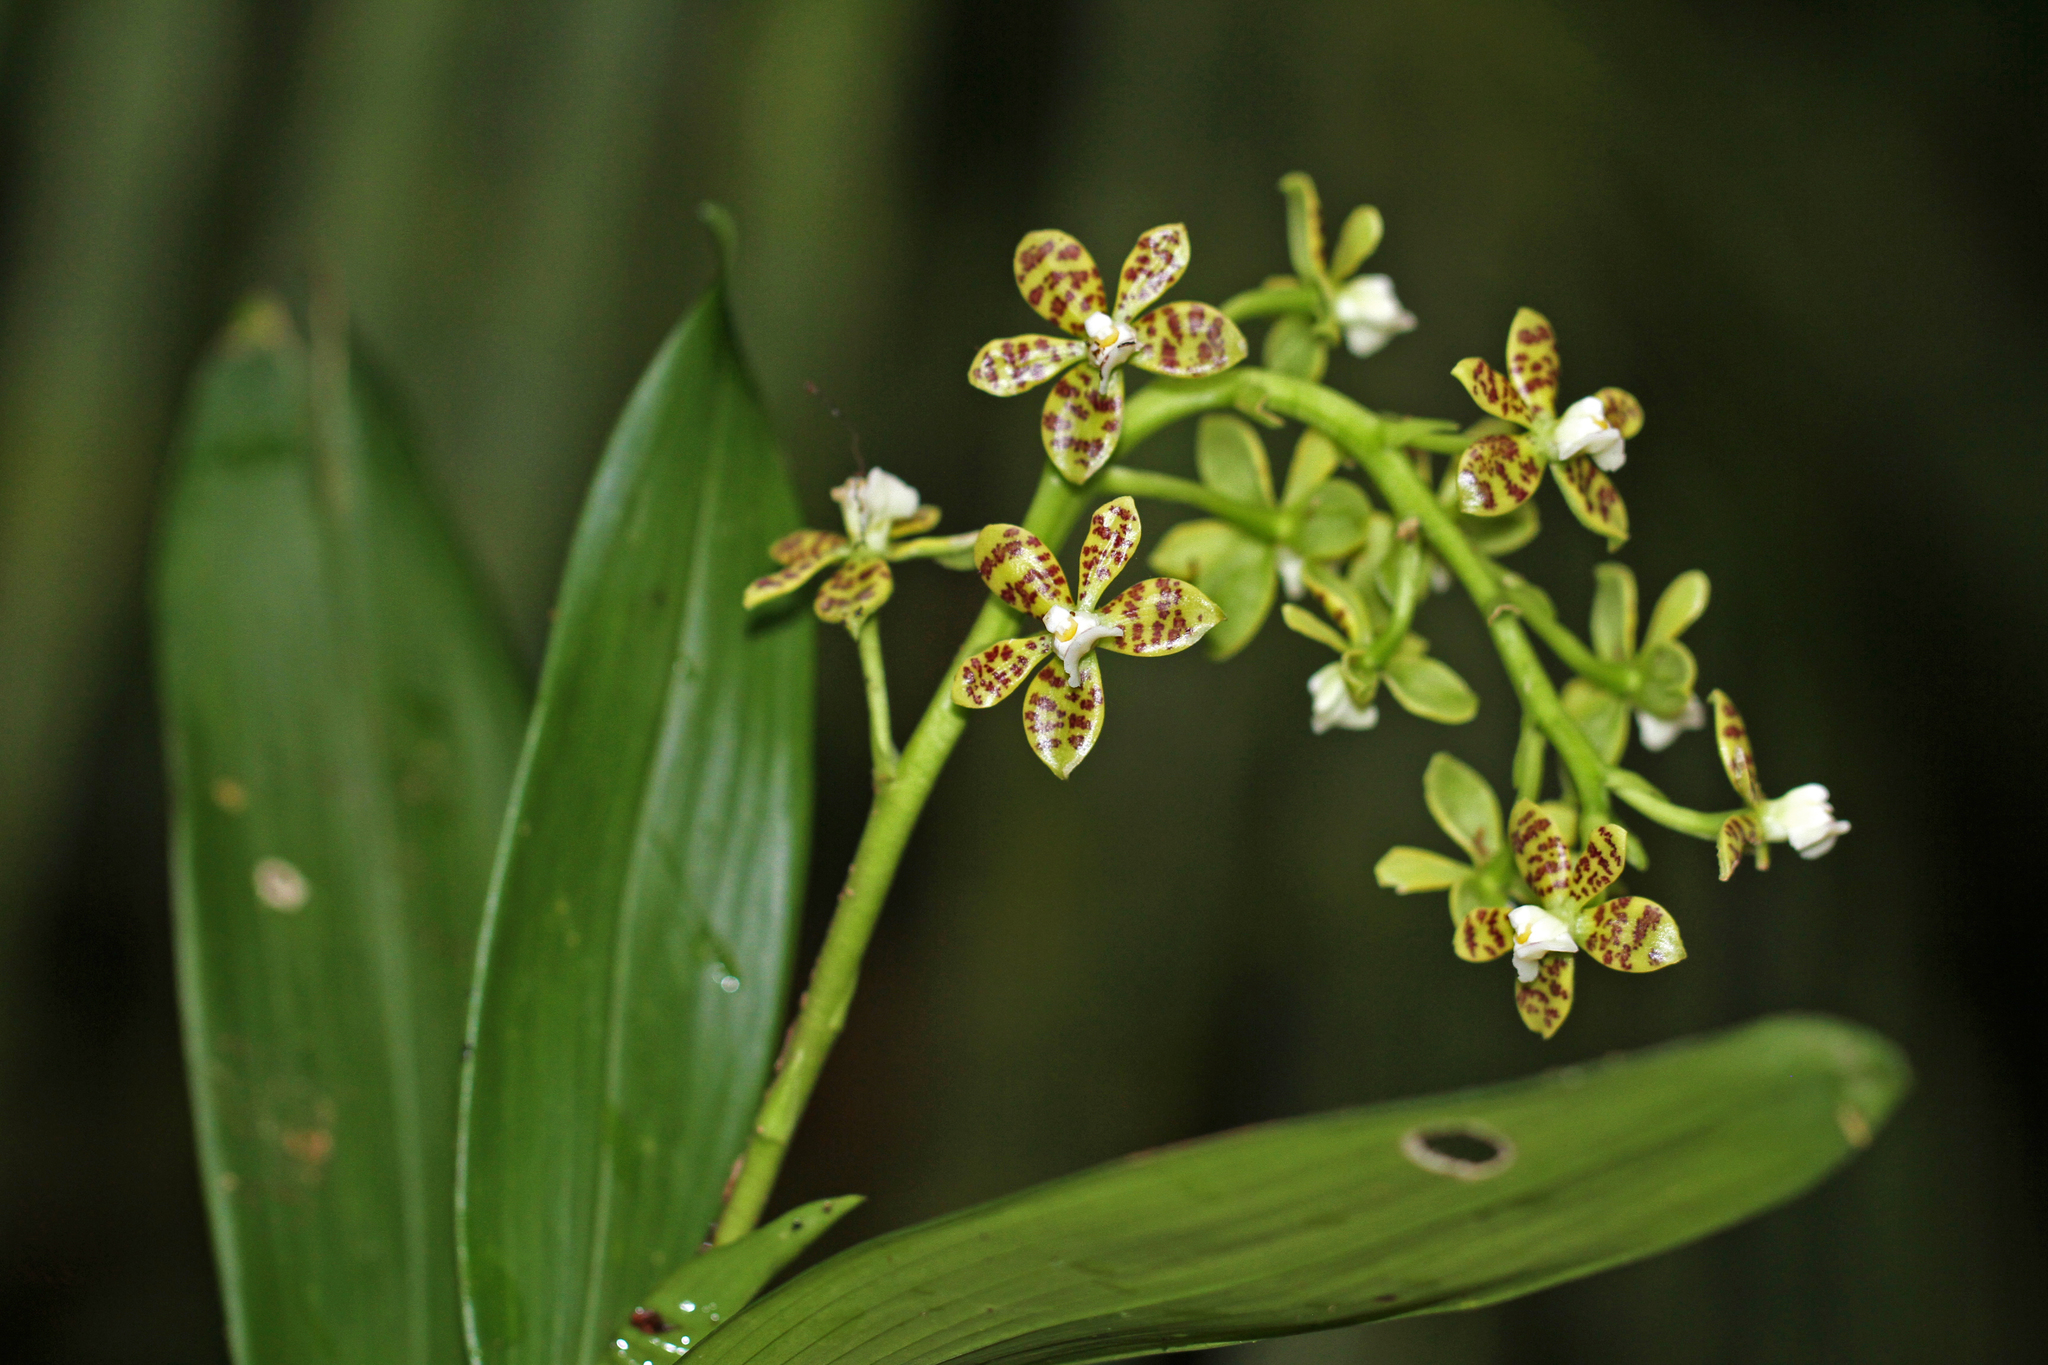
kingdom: Plantae
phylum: Tracheophyta
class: Liliopsida
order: Asparagales
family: Orchidaceae
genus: Prosthechea
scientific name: Prosthechea crassilabia
